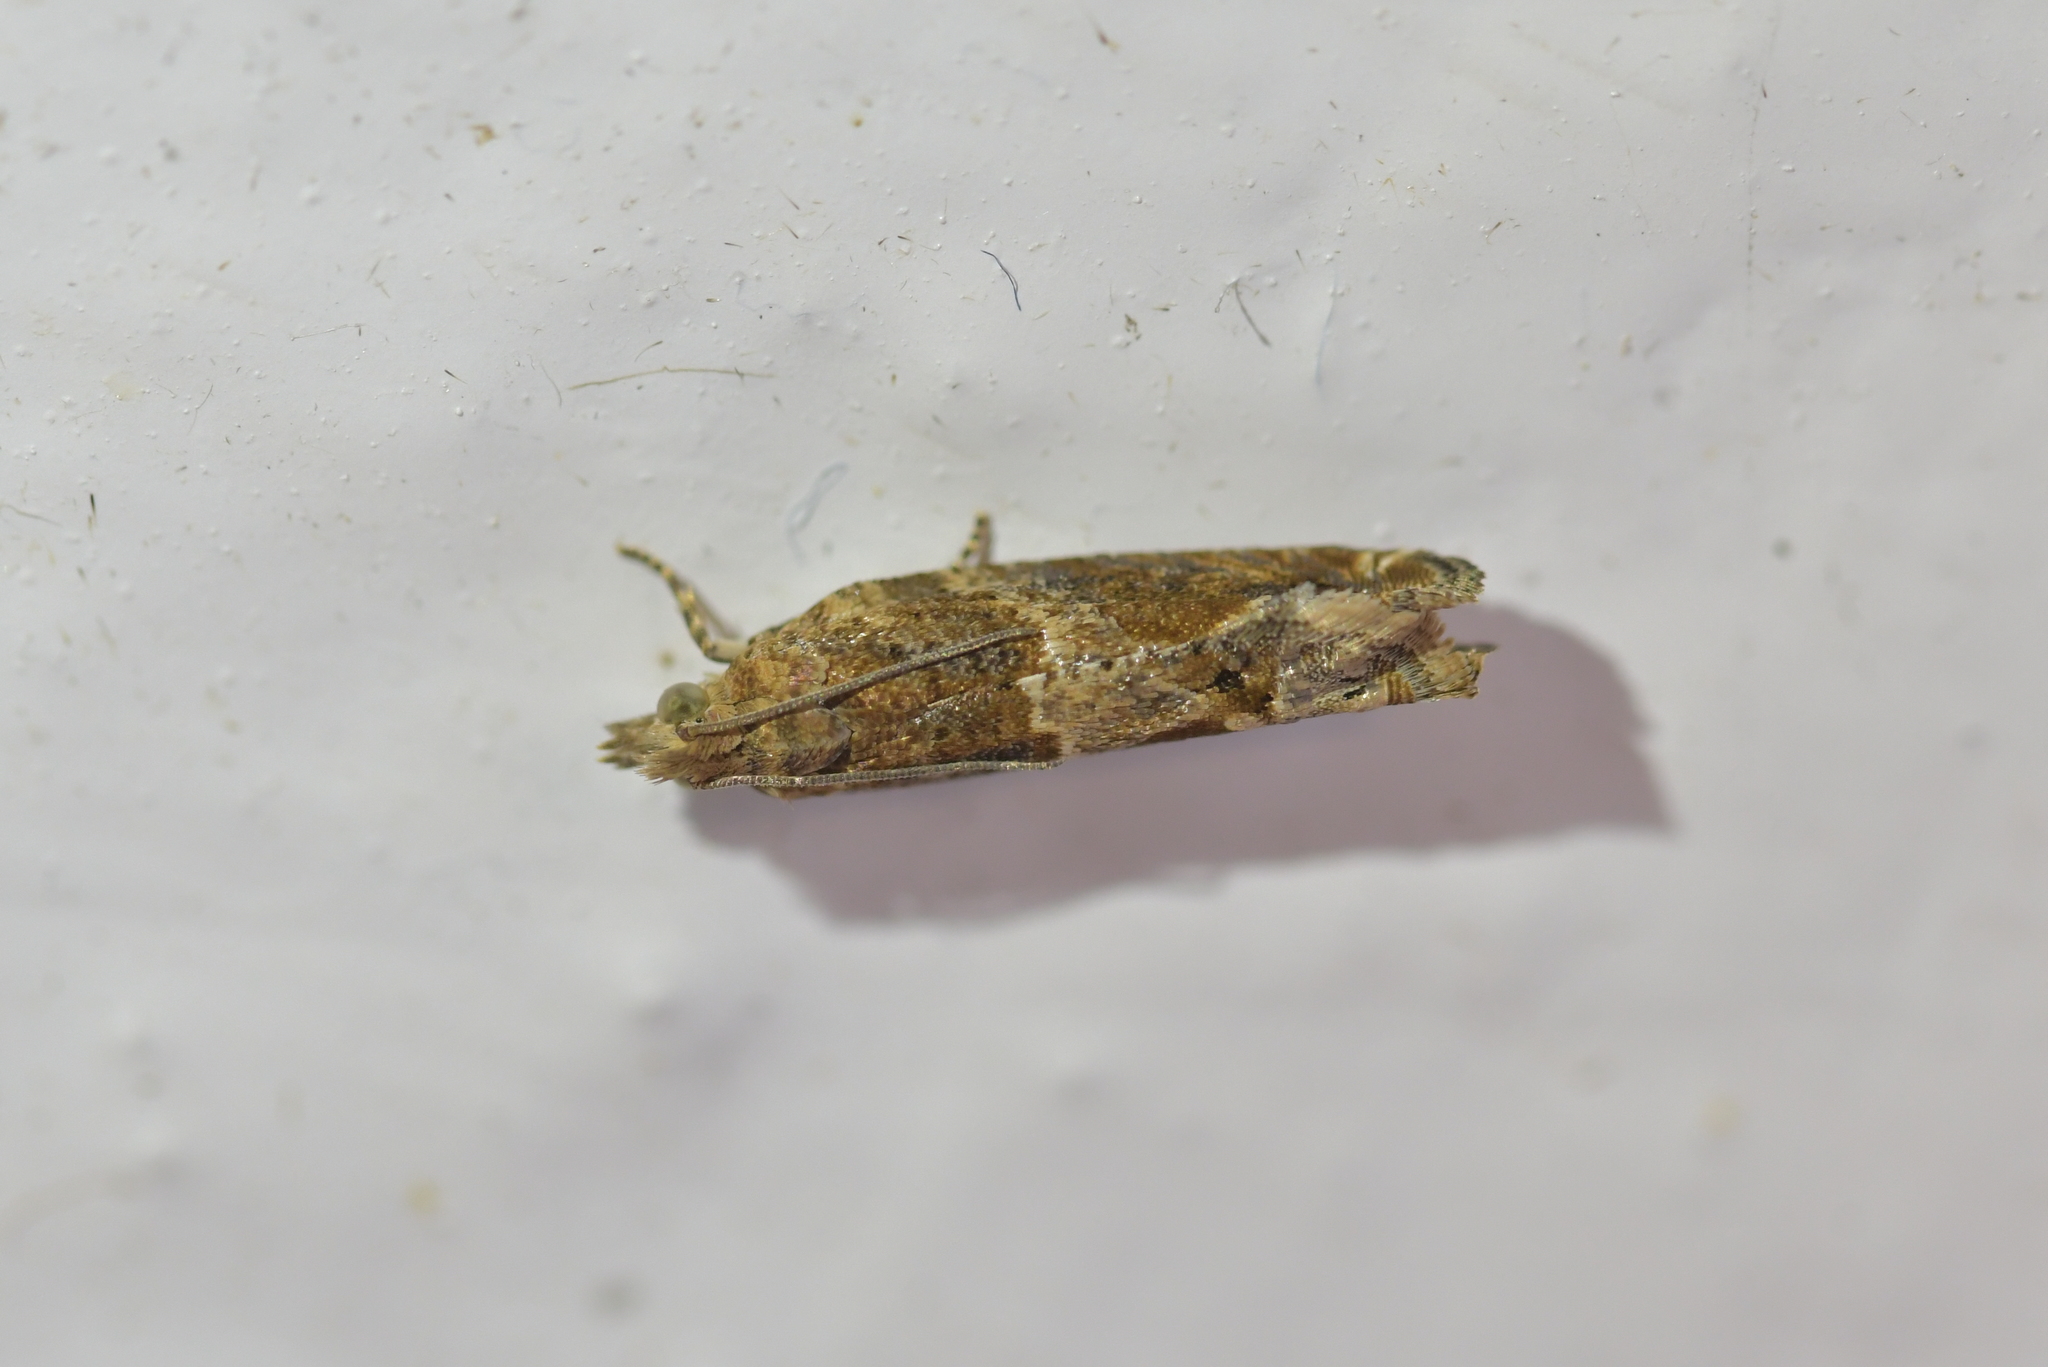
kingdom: Animalia
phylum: Arthropoda
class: Insecta
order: Lepidoptera
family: Tortricidae
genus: Crocidosema
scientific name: Crocidosema plebejana
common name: Southern bell
